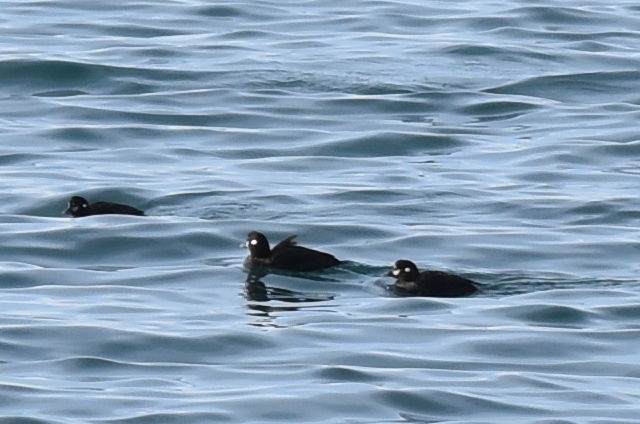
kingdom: Animalia
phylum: Chordata
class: Aves
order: Anseriformes
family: Anatidae
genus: Histrionicus
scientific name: Histrionicus histrionicus
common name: Harlequin duck
